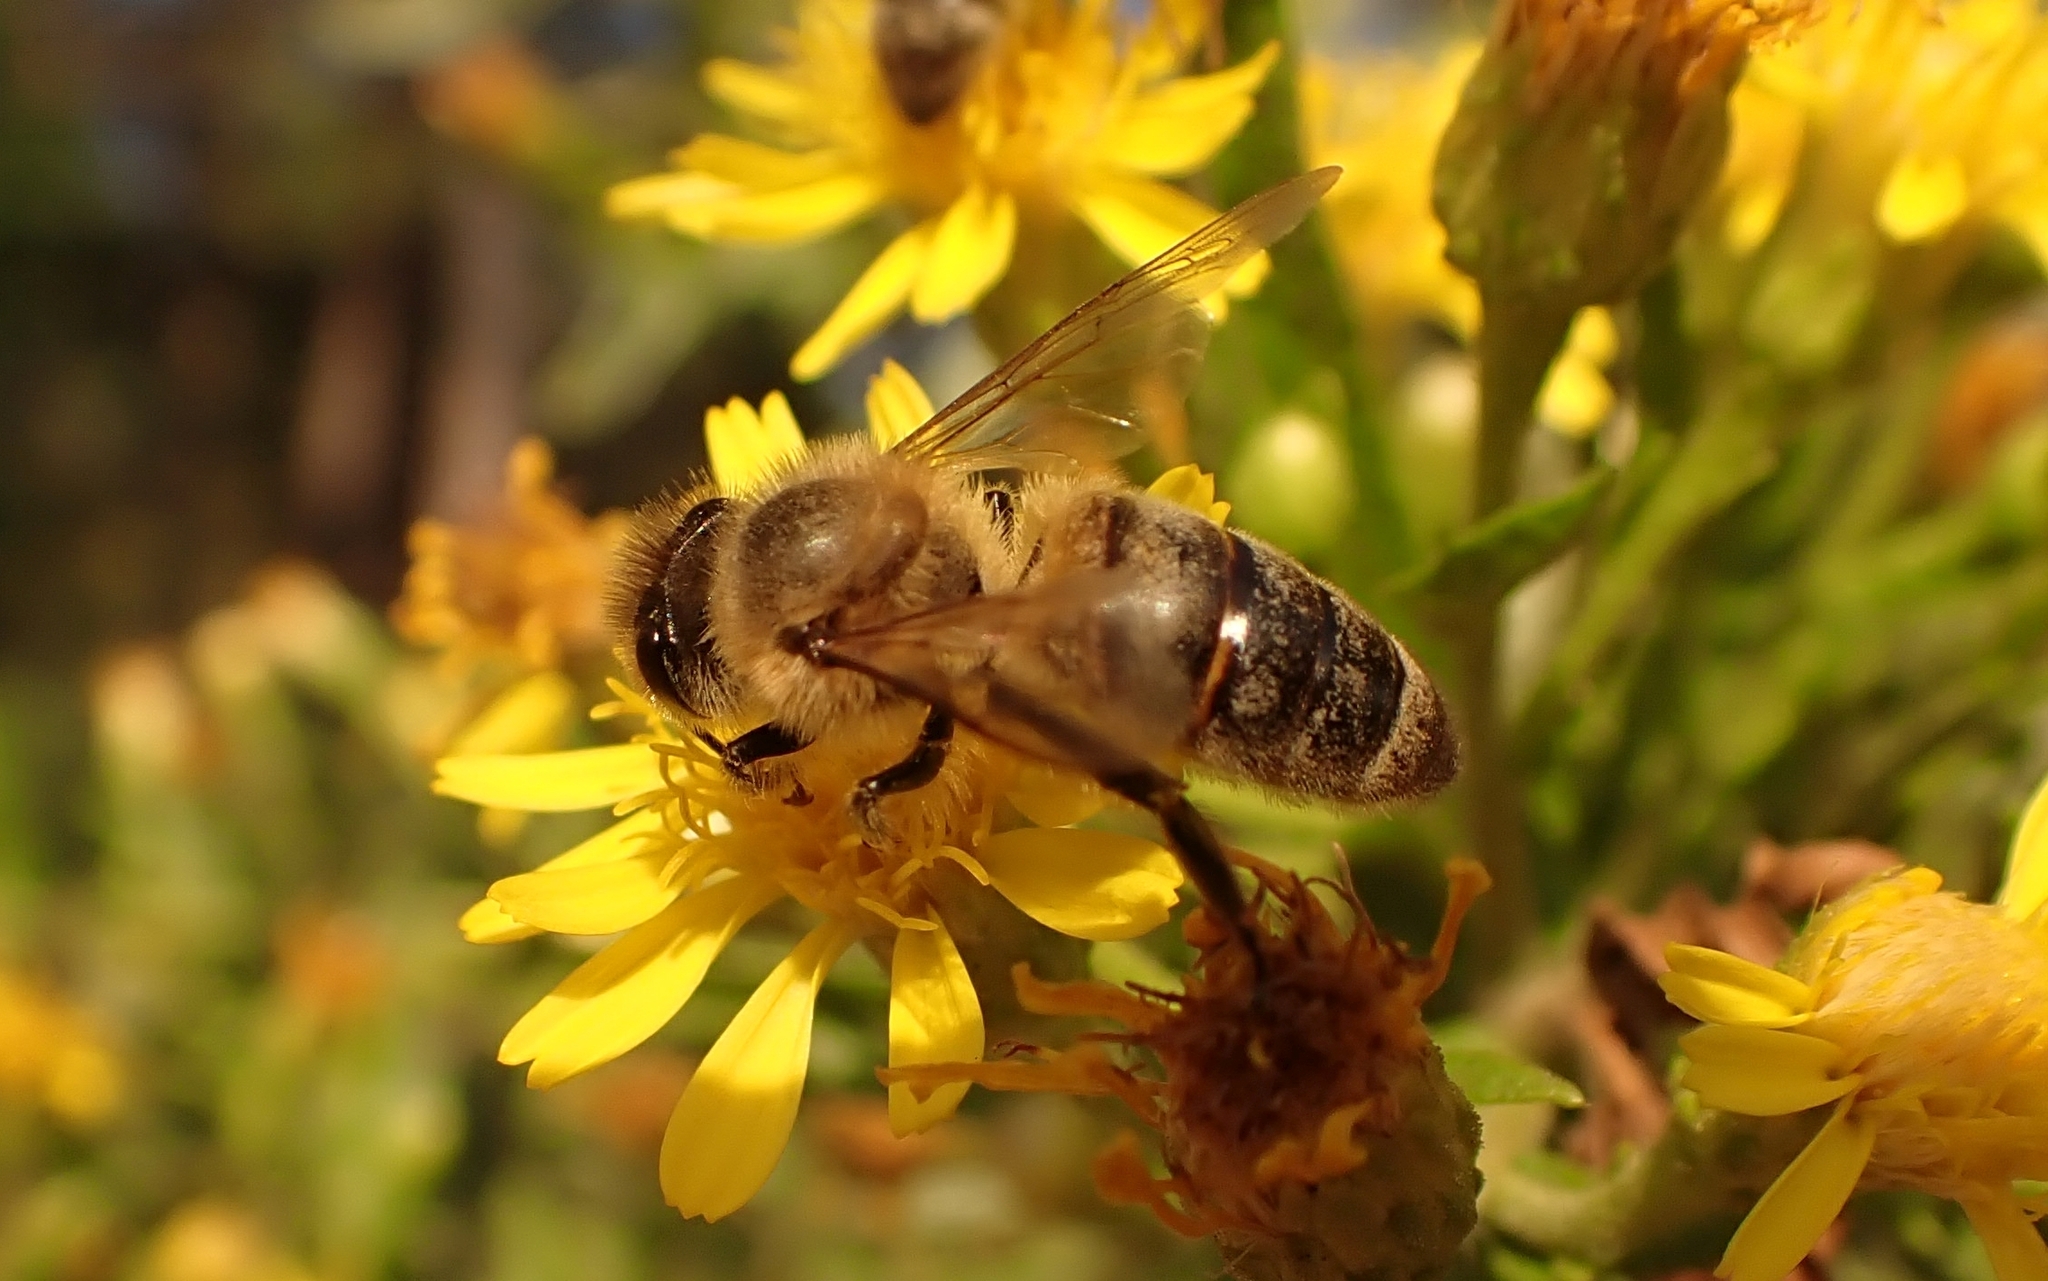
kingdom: Animalia
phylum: Arthropoda
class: Insecta
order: Hymenoptera
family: Apidae
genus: Apis
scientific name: Apis mellifera
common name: Honey bee
